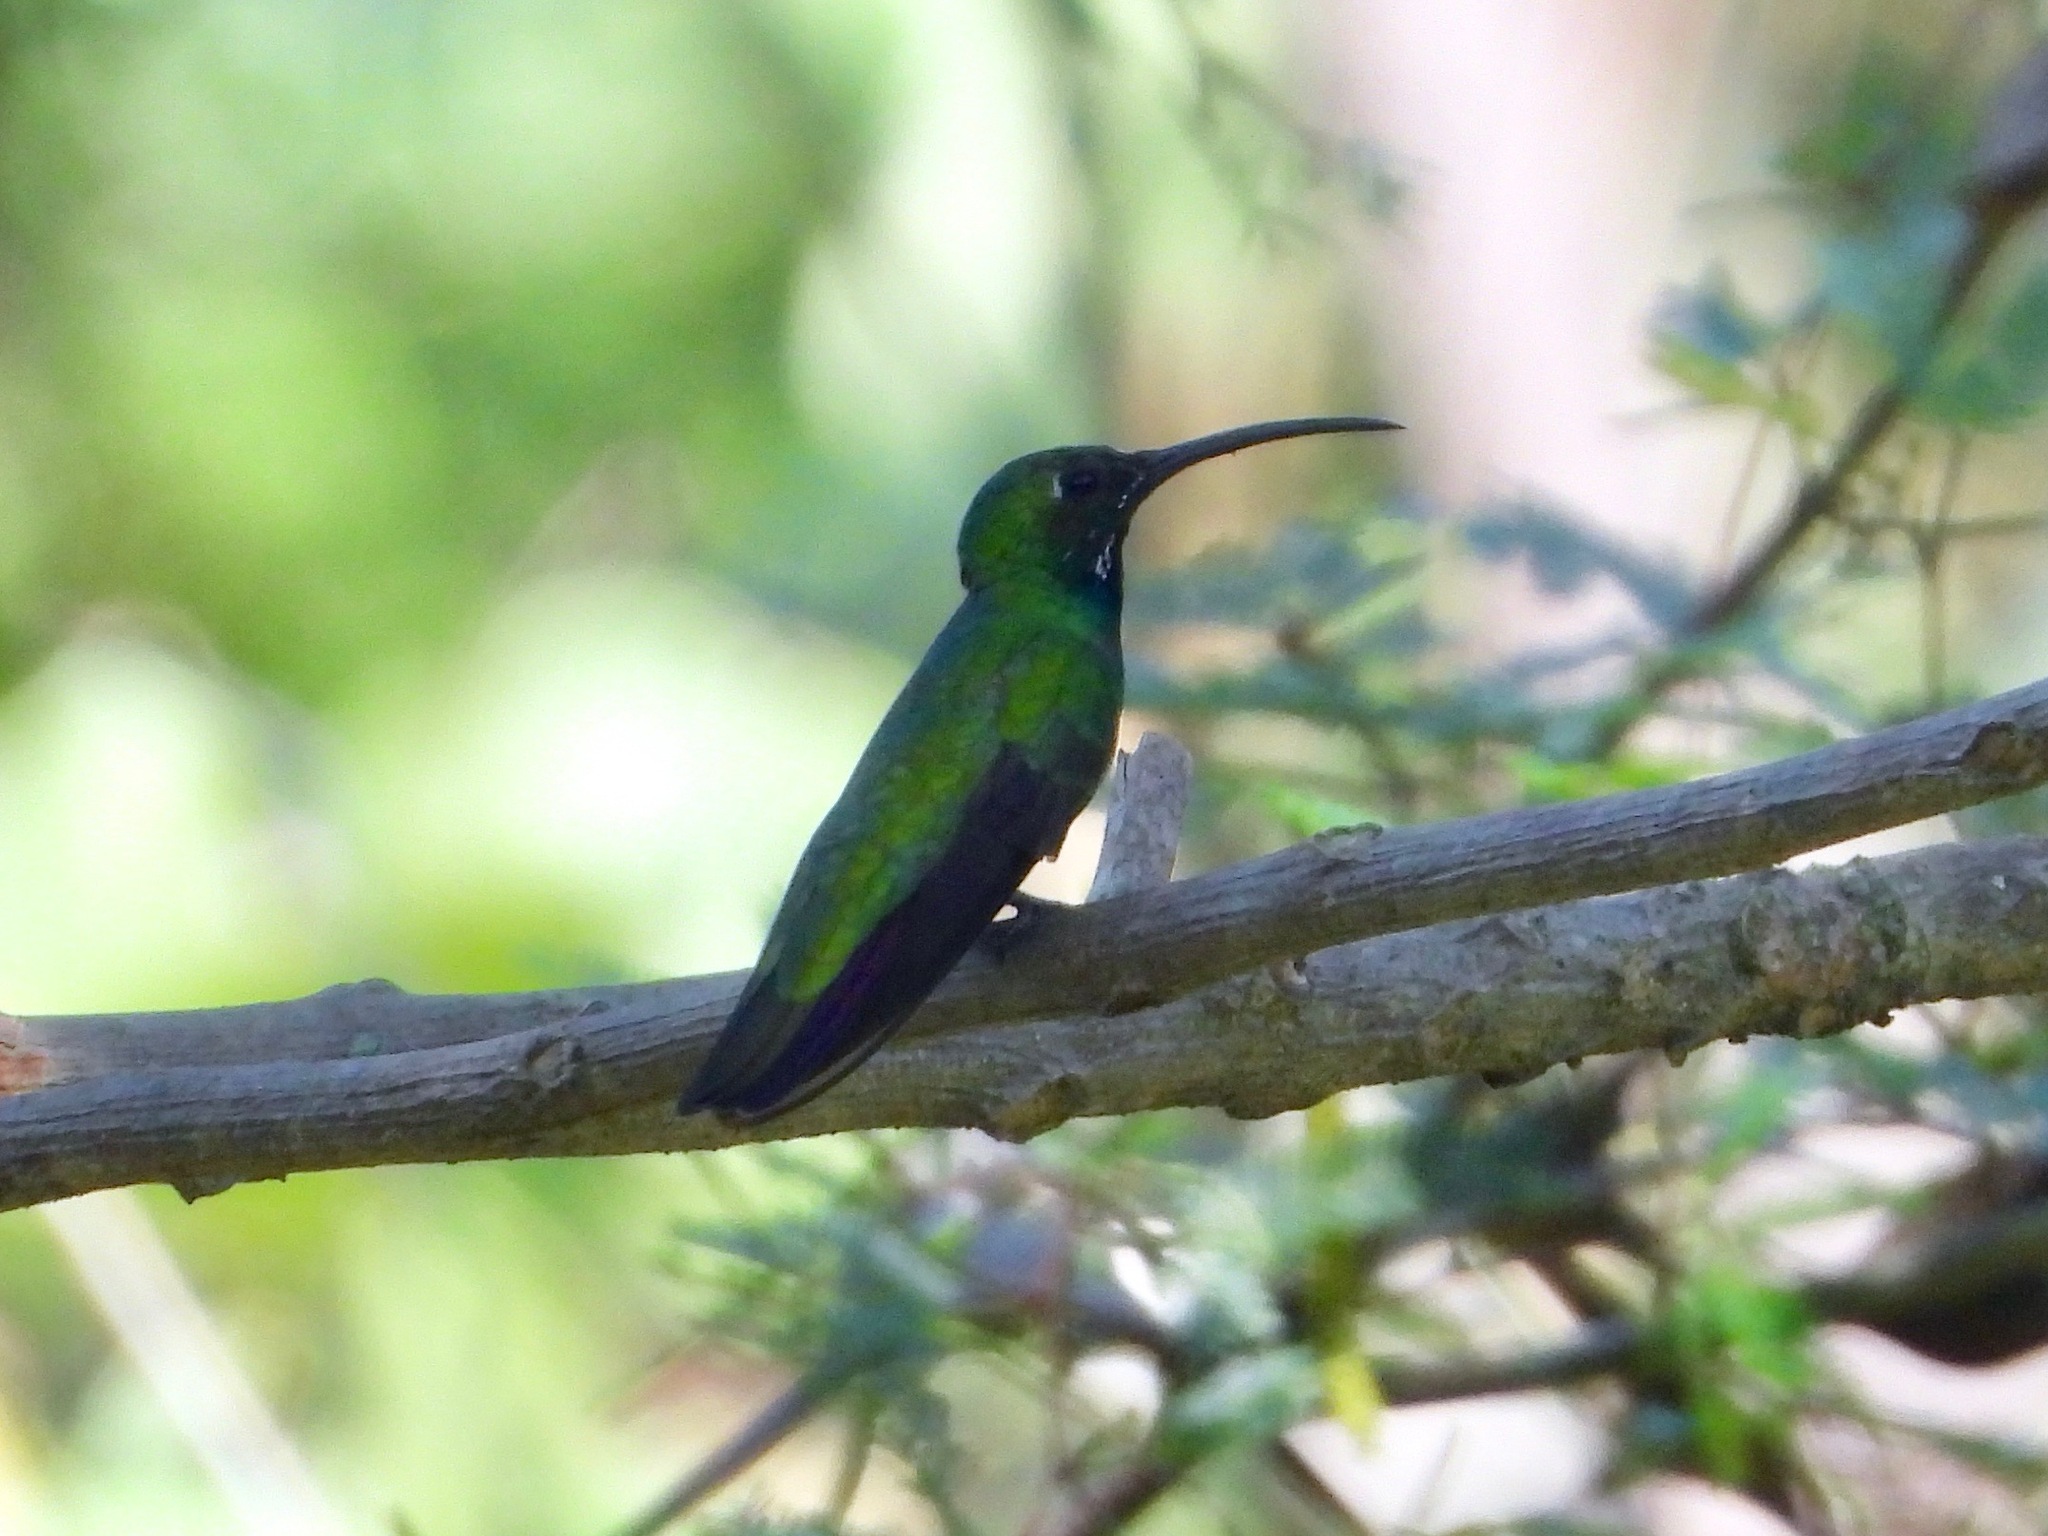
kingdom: Animalia
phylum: Chordata
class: Aves
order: Apodiformes
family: Trochilidae
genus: Anthracothorax
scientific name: Anthracothorax prevostii
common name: Green-breasted mango
